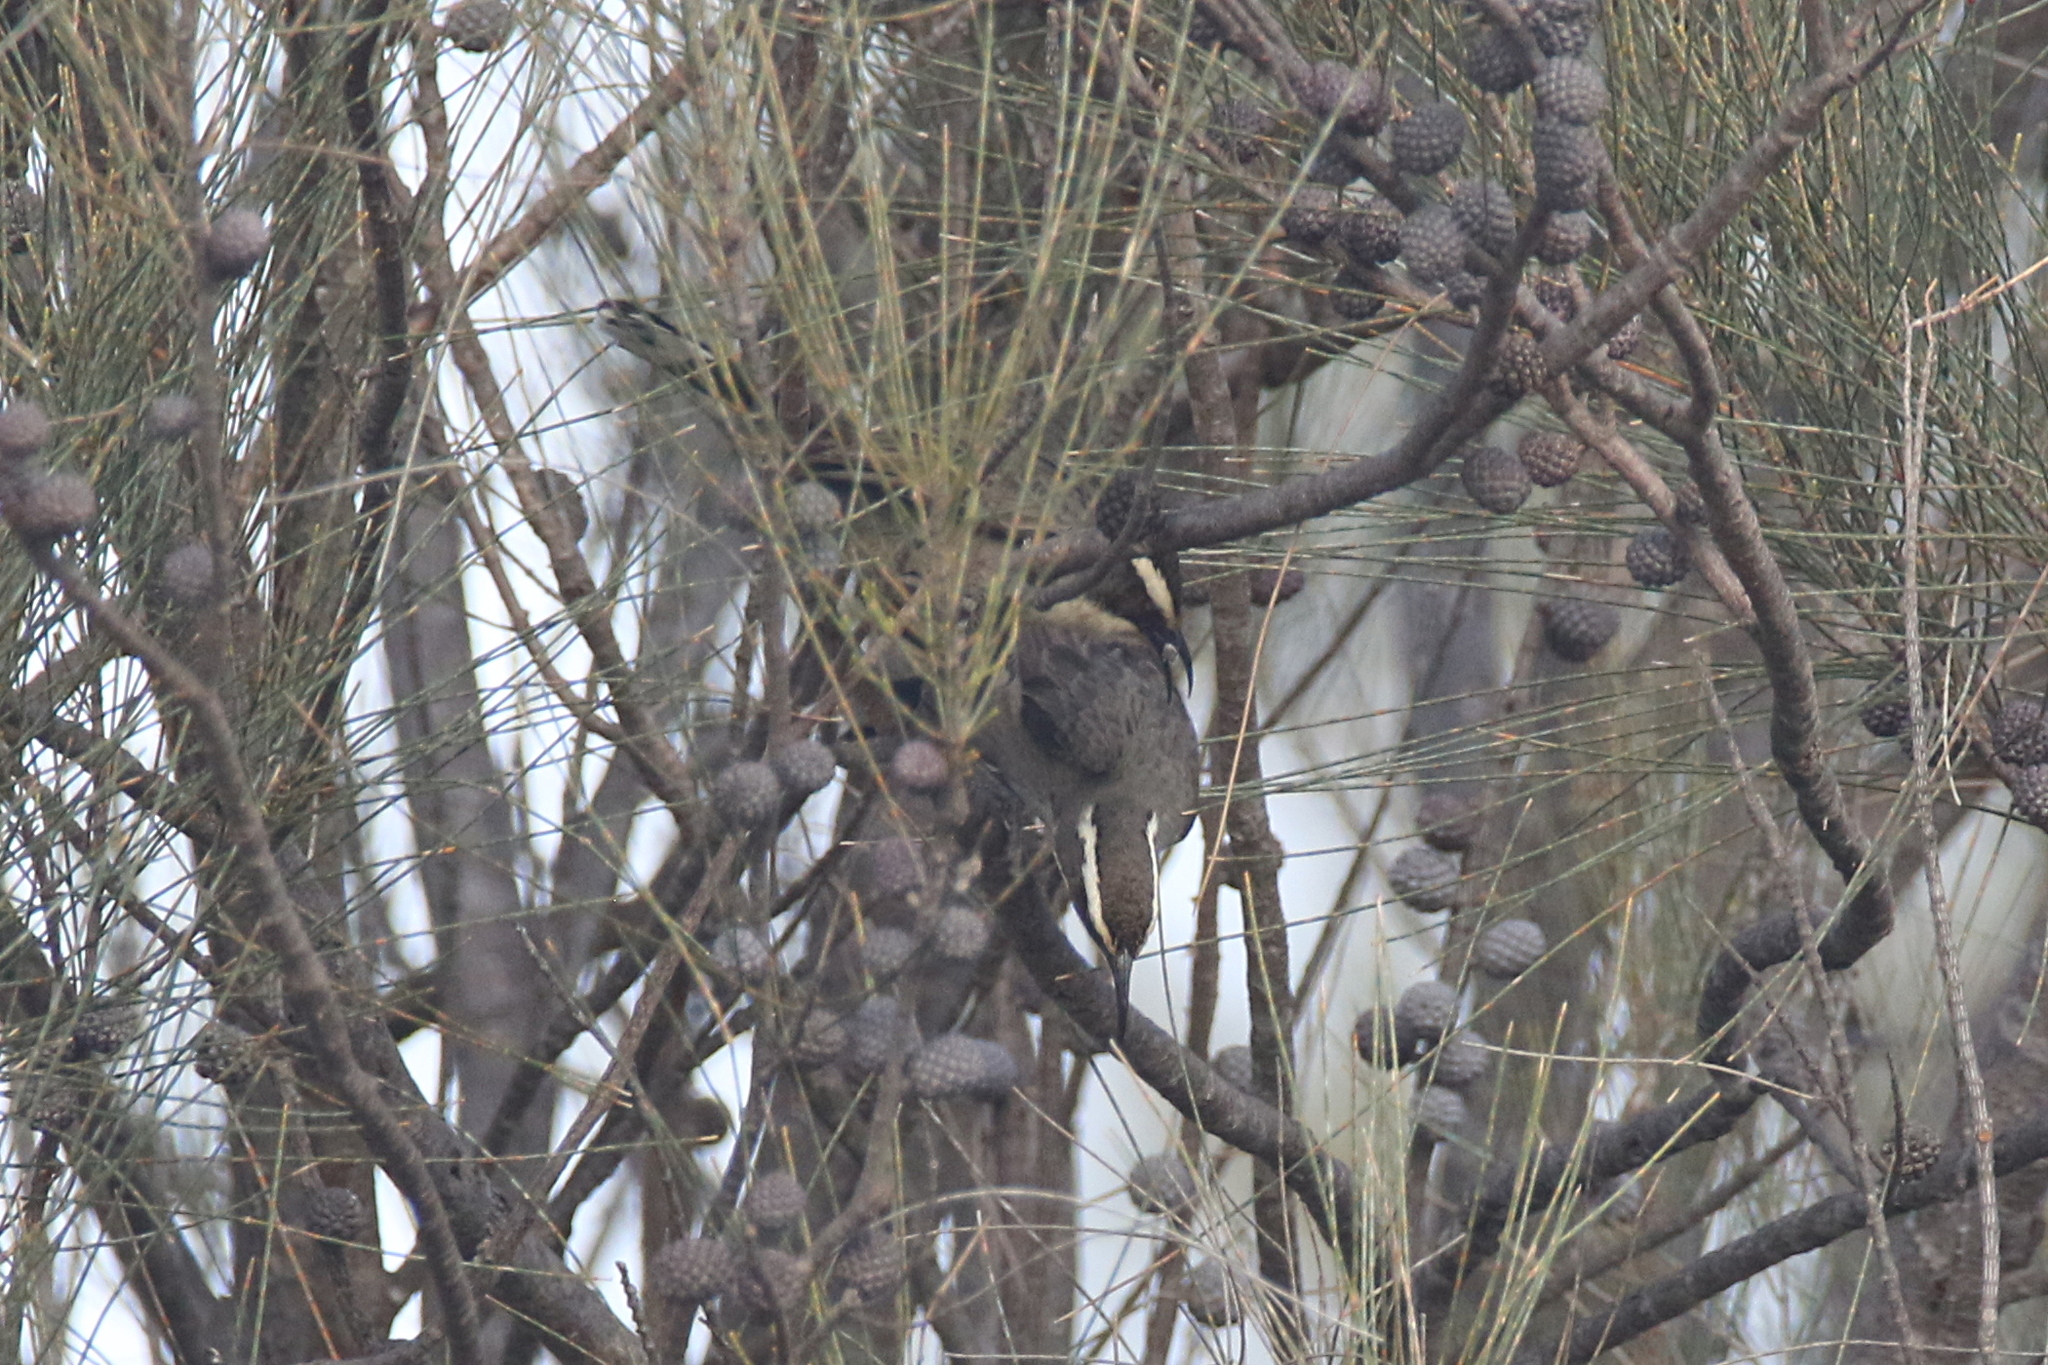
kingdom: Animalia
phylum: Chordata
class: Aves
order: Passeriformes
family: Pomatostomidae
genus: Pomatostomus
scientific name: Pomatostomus superciliosus
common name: White-browed babbler
